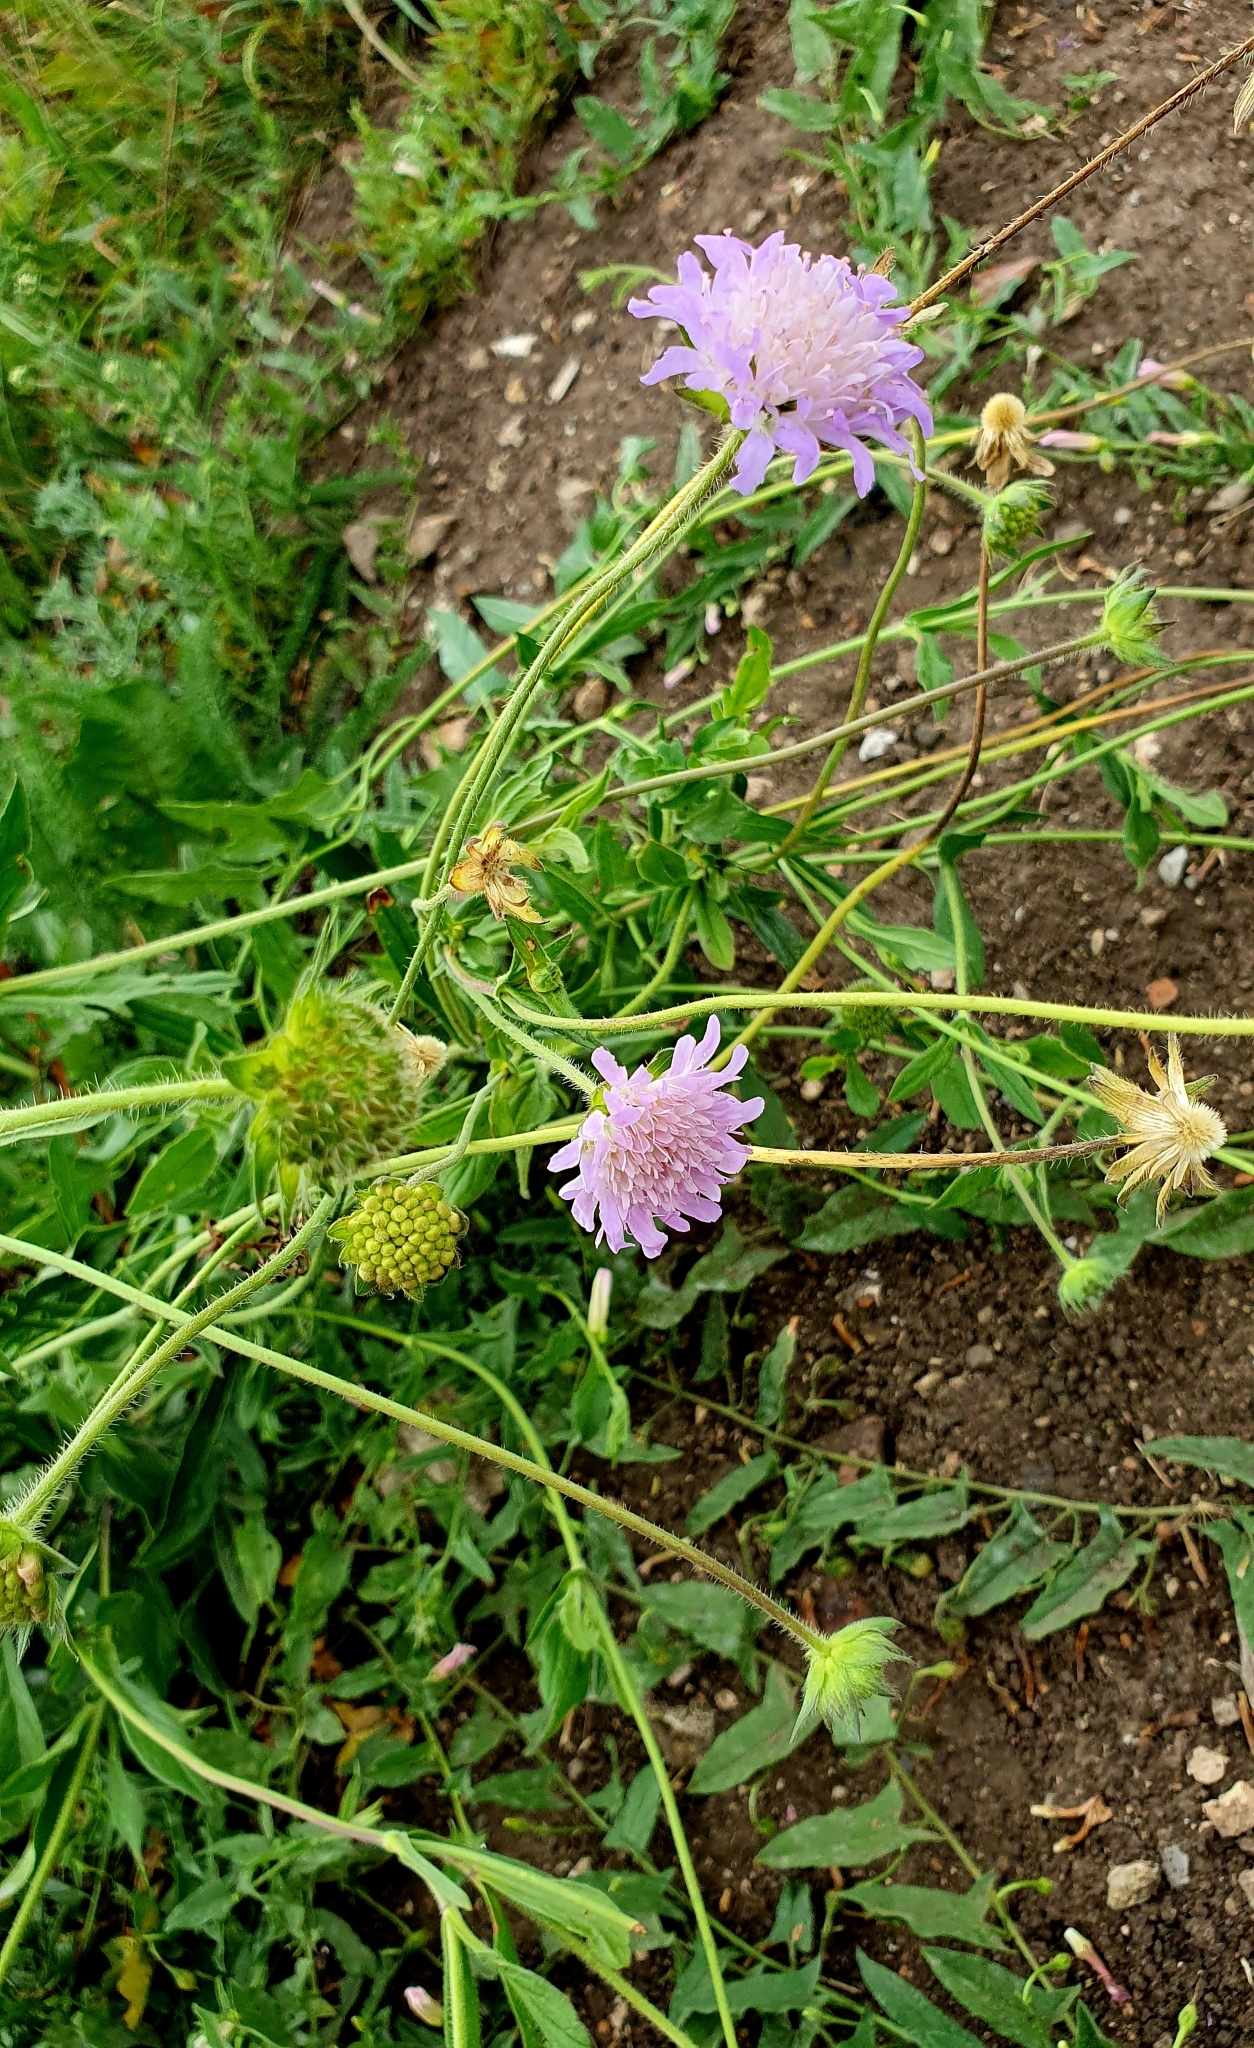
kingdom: Plantae
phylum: Tracheophyta
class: Magnoliopsida
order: Dipsacales
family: Caprifoliaceae
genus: Knautia
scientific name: Knautia arvensis
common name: Field scabiosa
